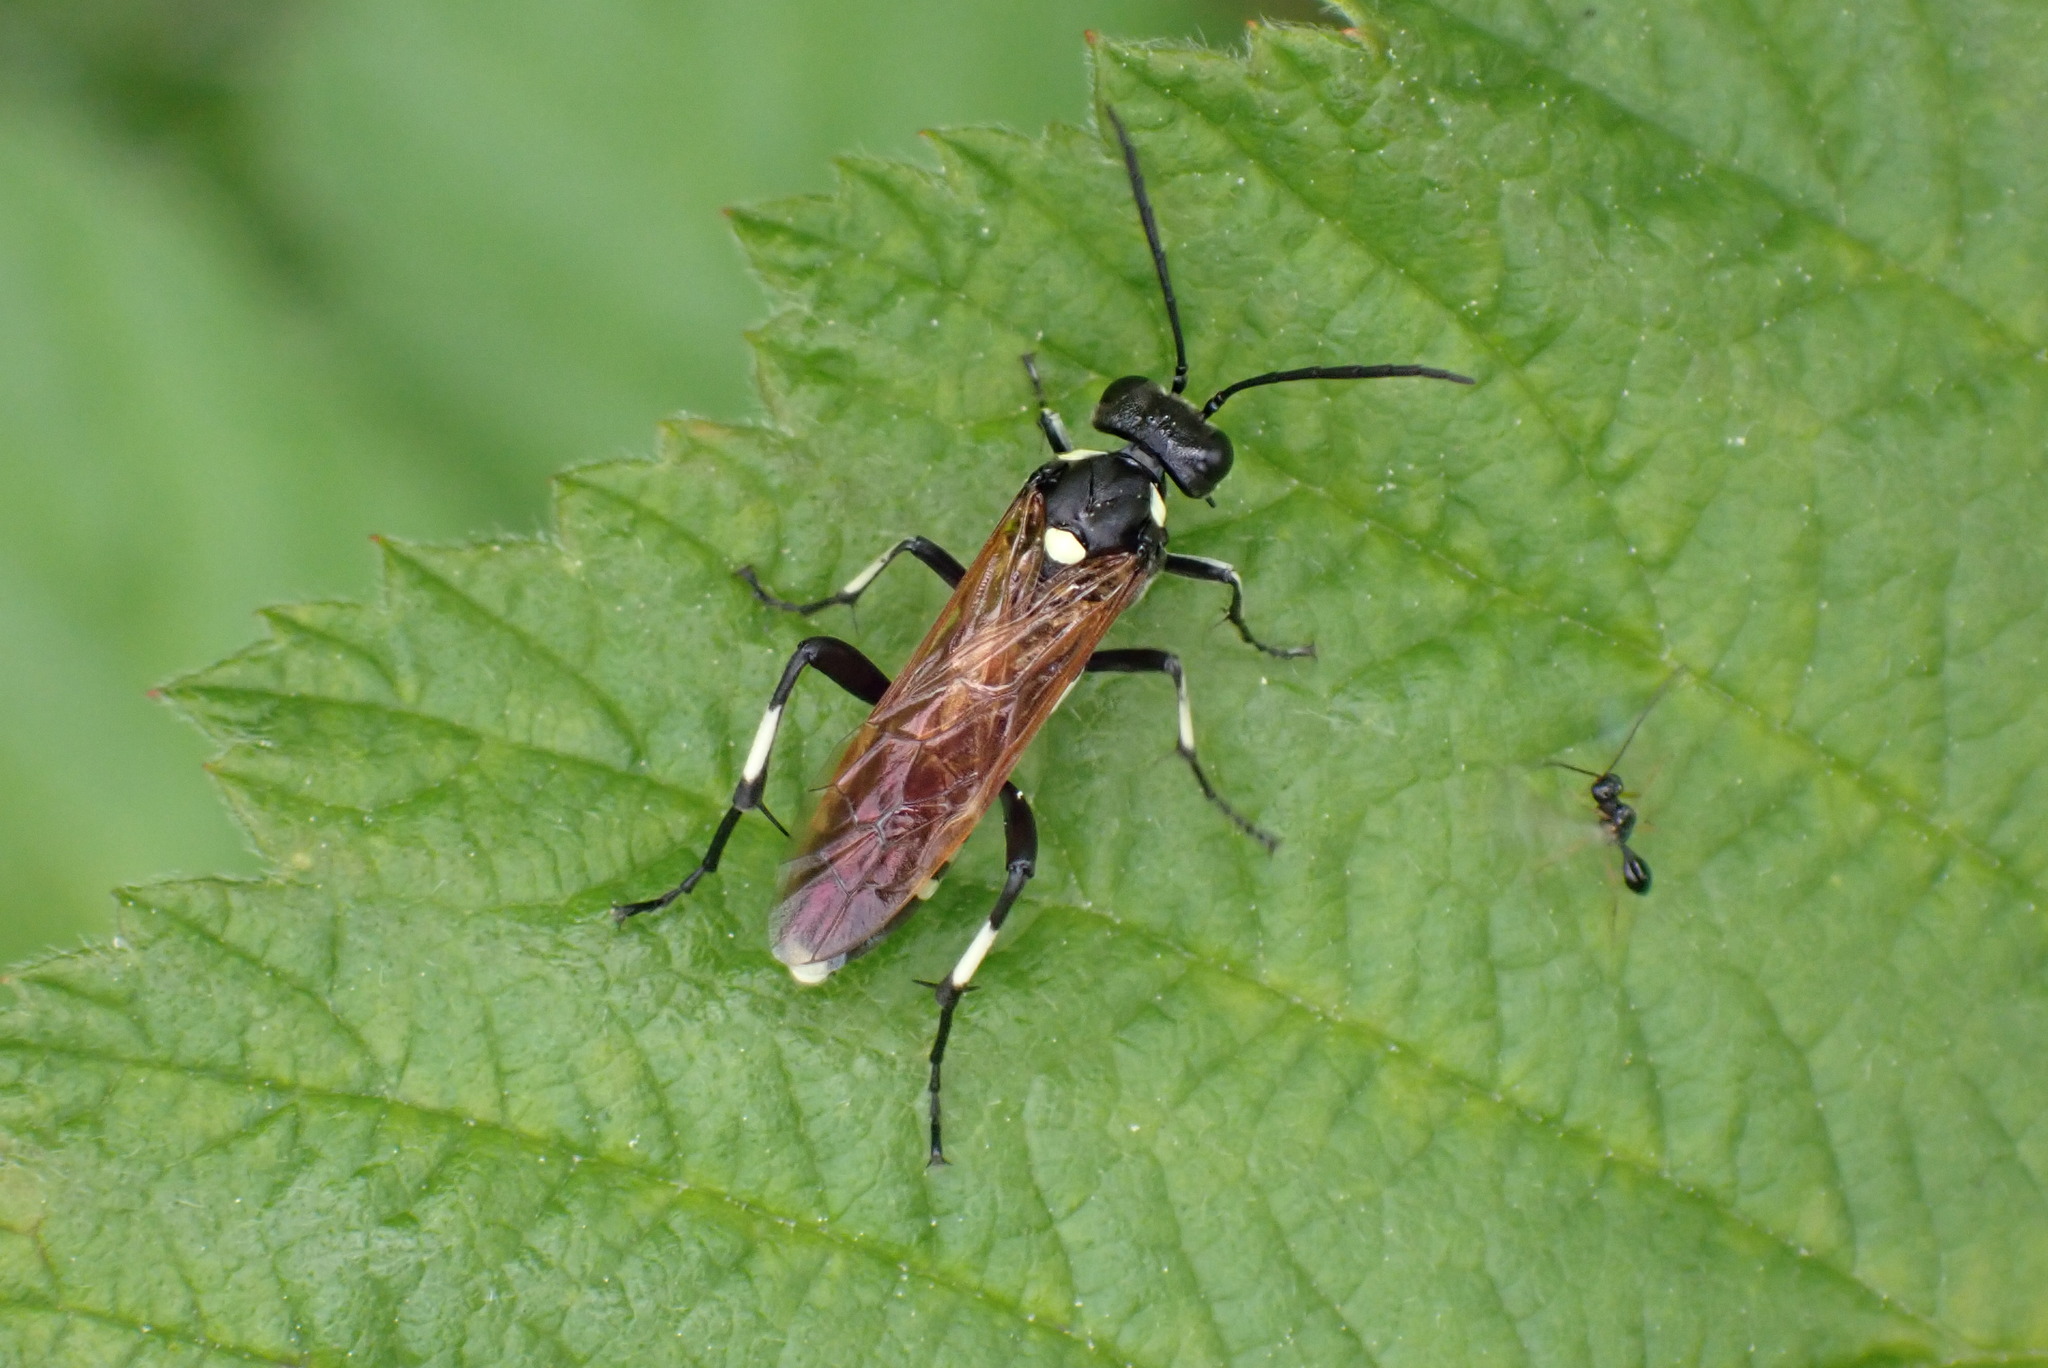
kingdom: Animalia
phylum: Arthropoda
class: Insecta
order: Hymenoptera
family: Tenthredinidae
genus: Macrophya
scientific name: Macrophya duodecimpunctata
